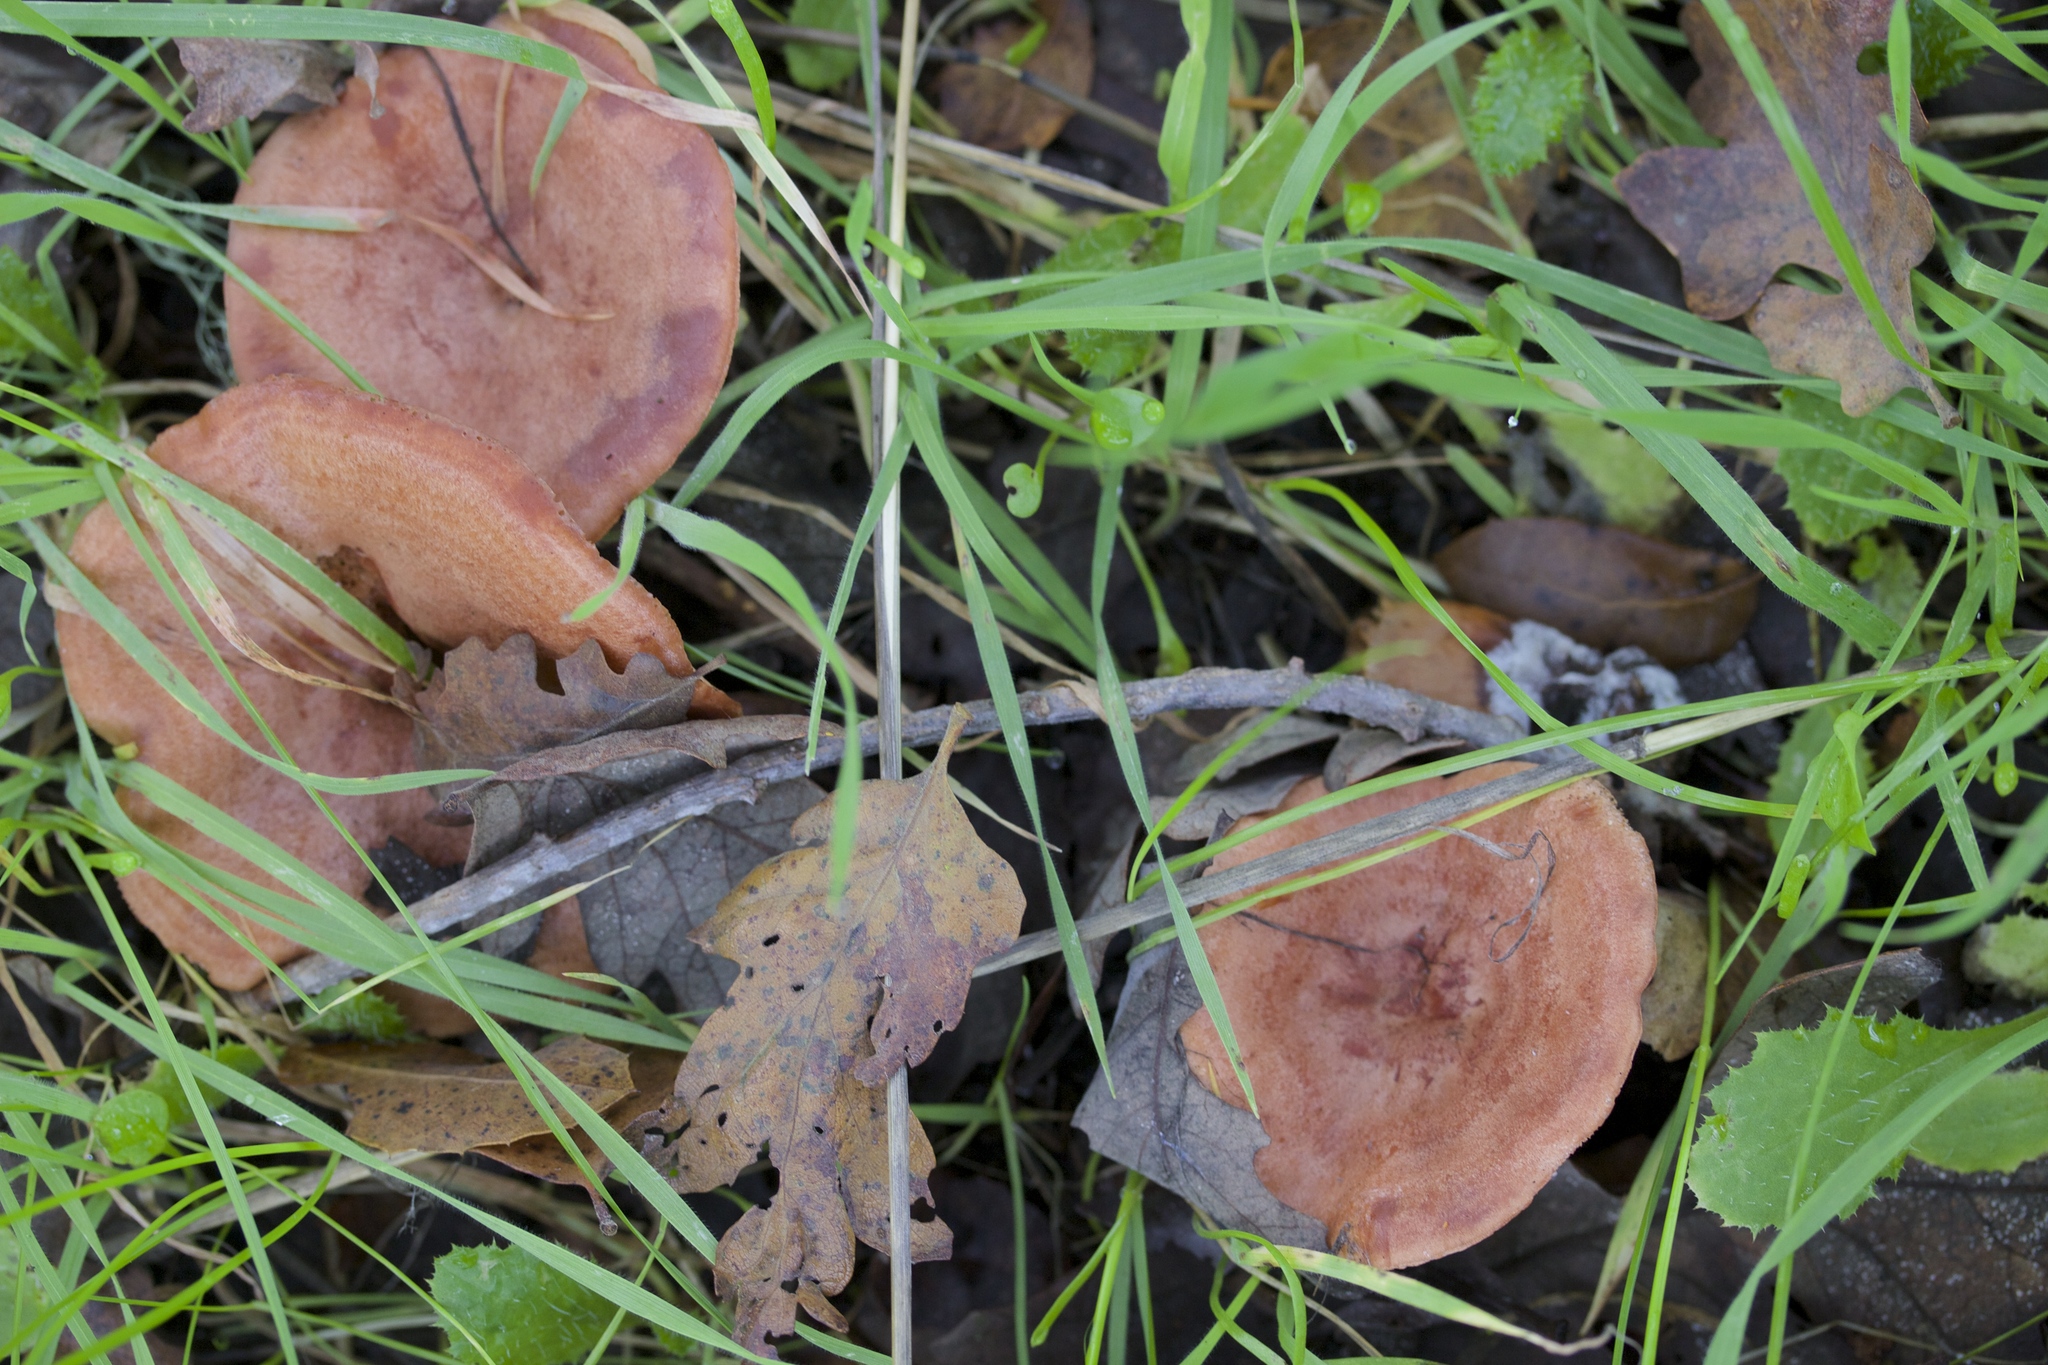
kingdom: Fungi
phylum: Basidiomycota
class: Agaricomycetes
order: Russulales
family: Russulaceae
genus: Lactarius
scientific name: Lactarius xanthogalactus
